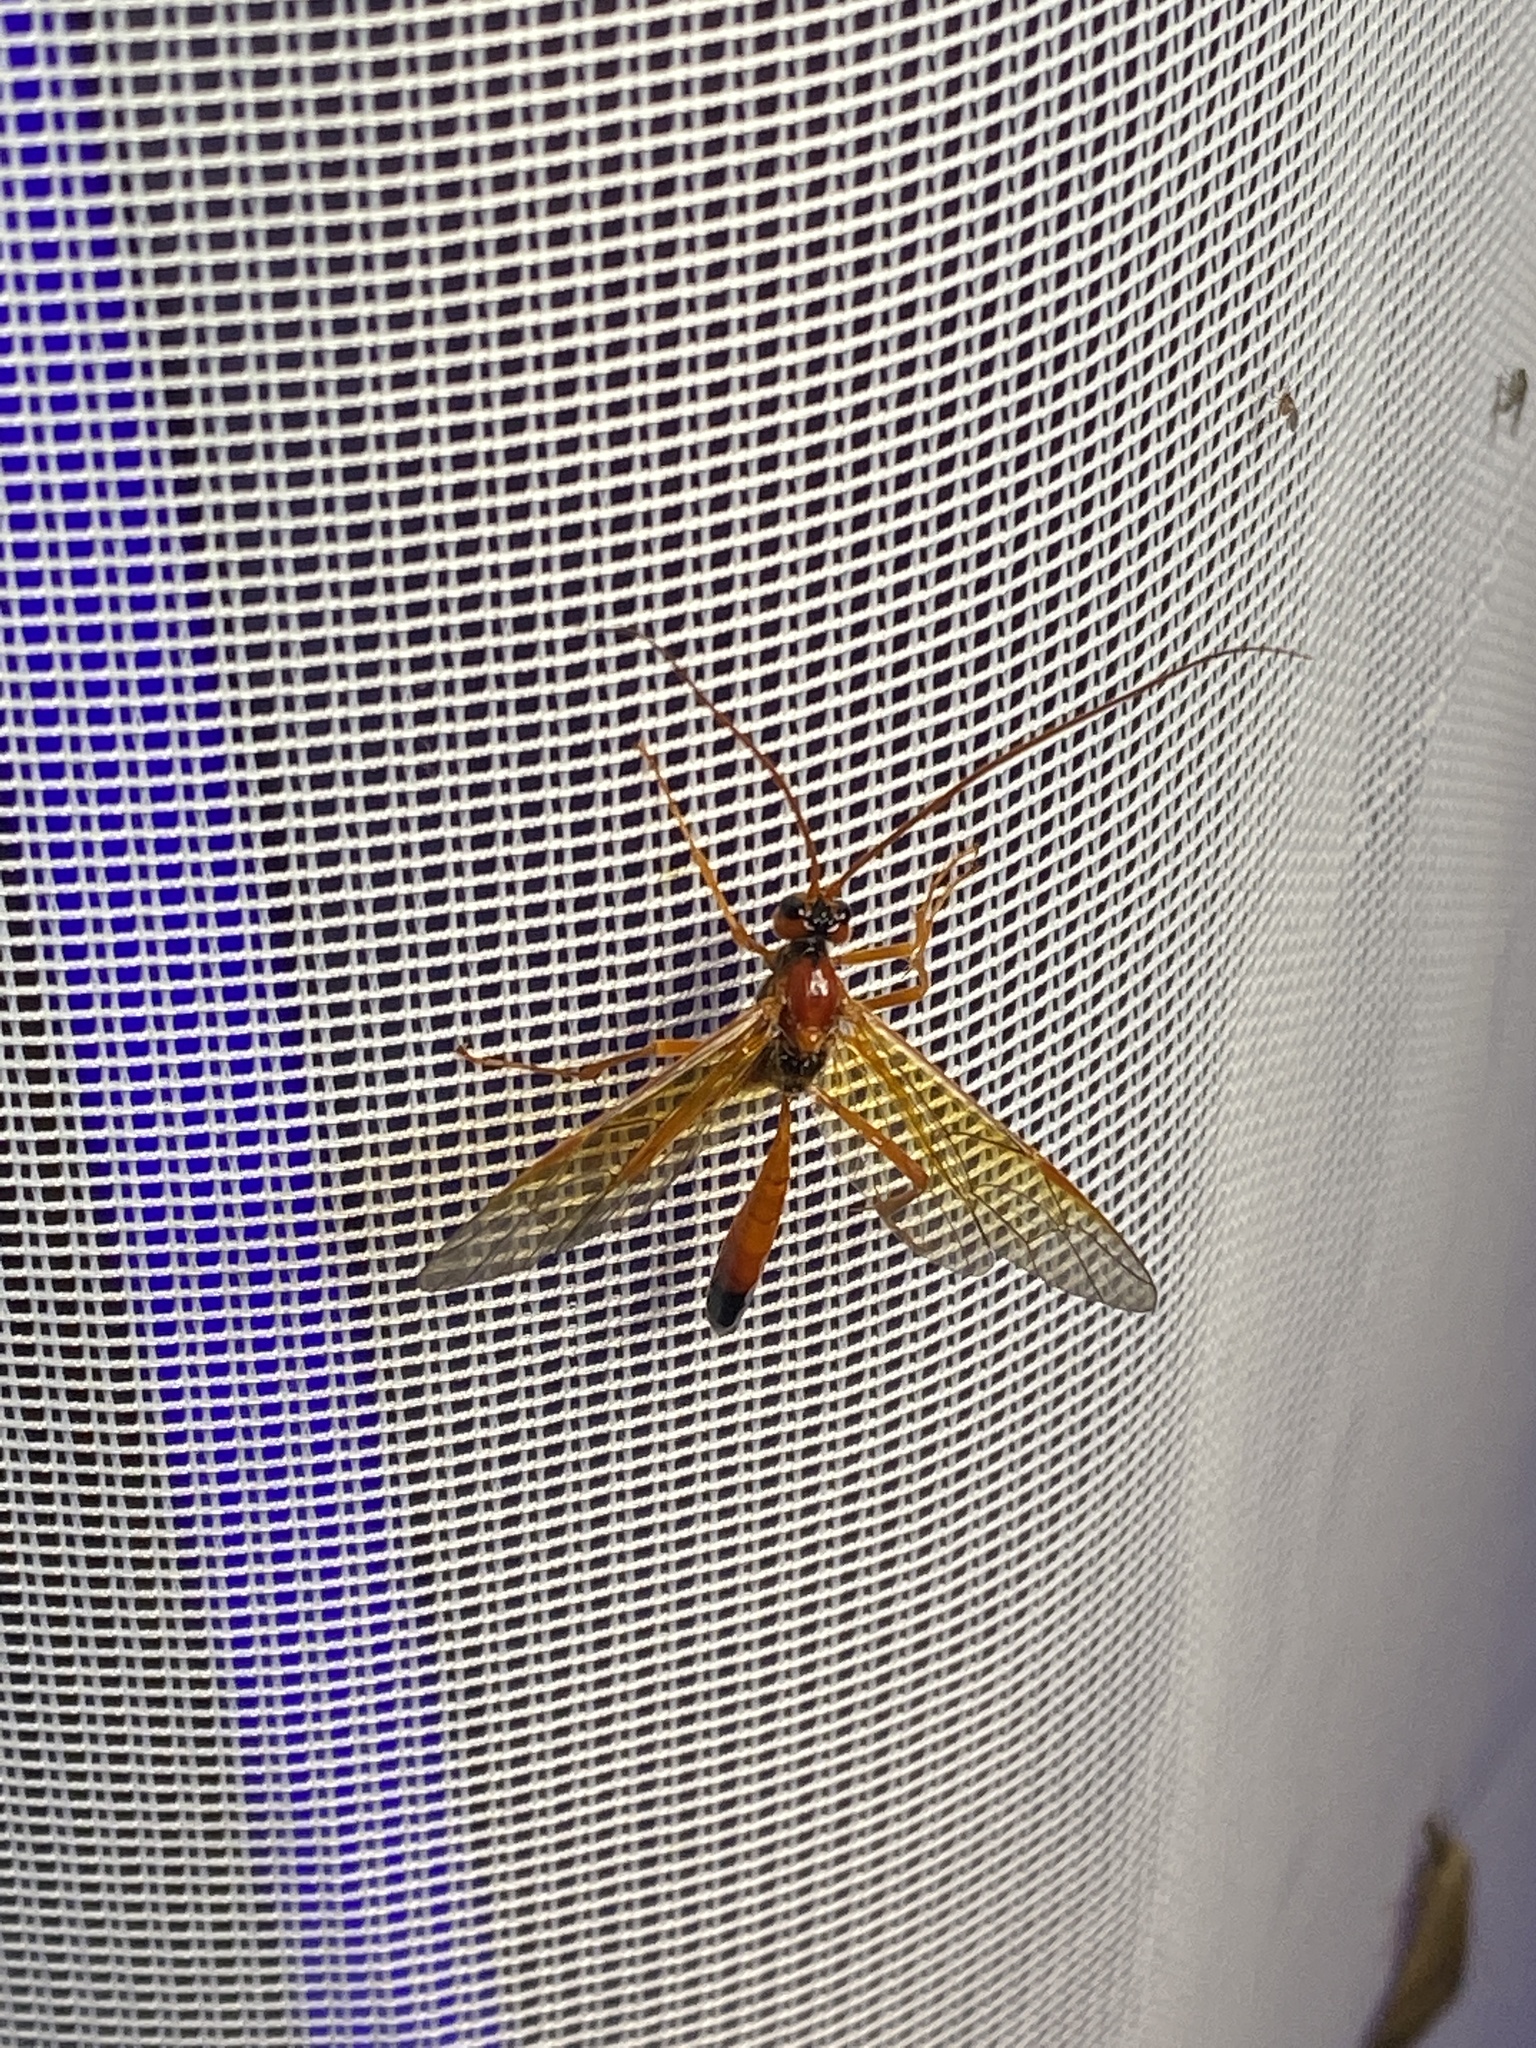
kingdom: Animalia
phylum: Arthropoda
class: Insecta
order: Hymenoptera
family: Ichneumonidae
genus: Opheltes
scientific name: Opheltes glaucopterus
